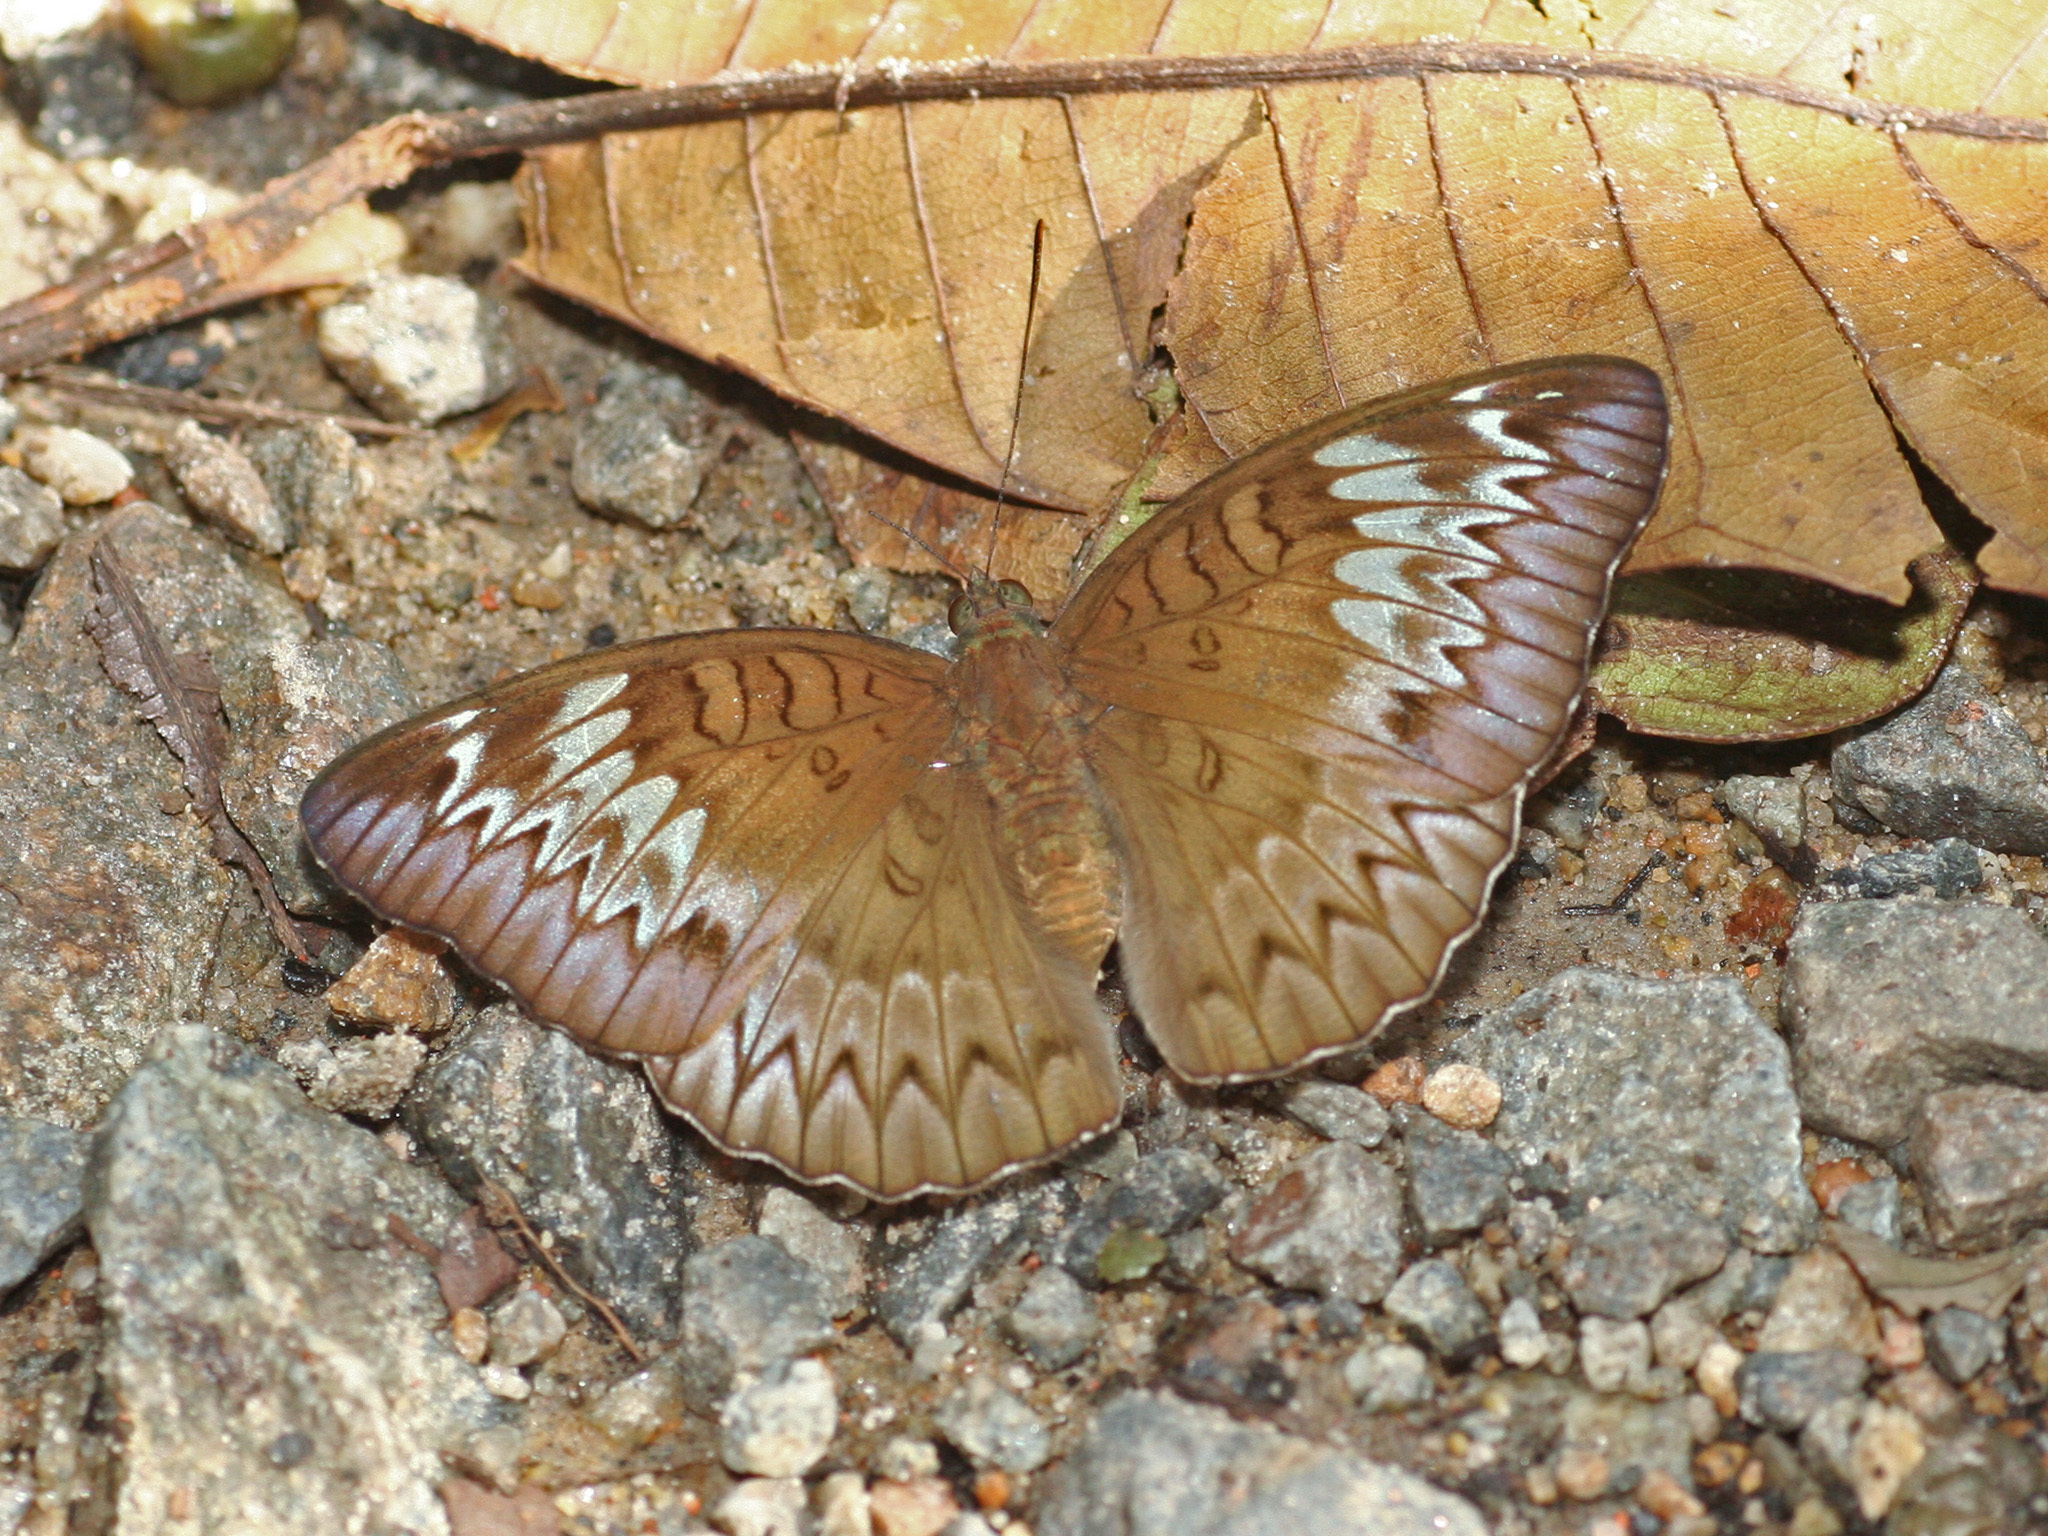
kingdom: Animalia
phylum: Arthropoda
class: Insecta
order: Lepidoptera
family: Nymphalidae
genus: Euthalia
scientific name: Euthalia monina
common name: Powdered baron
